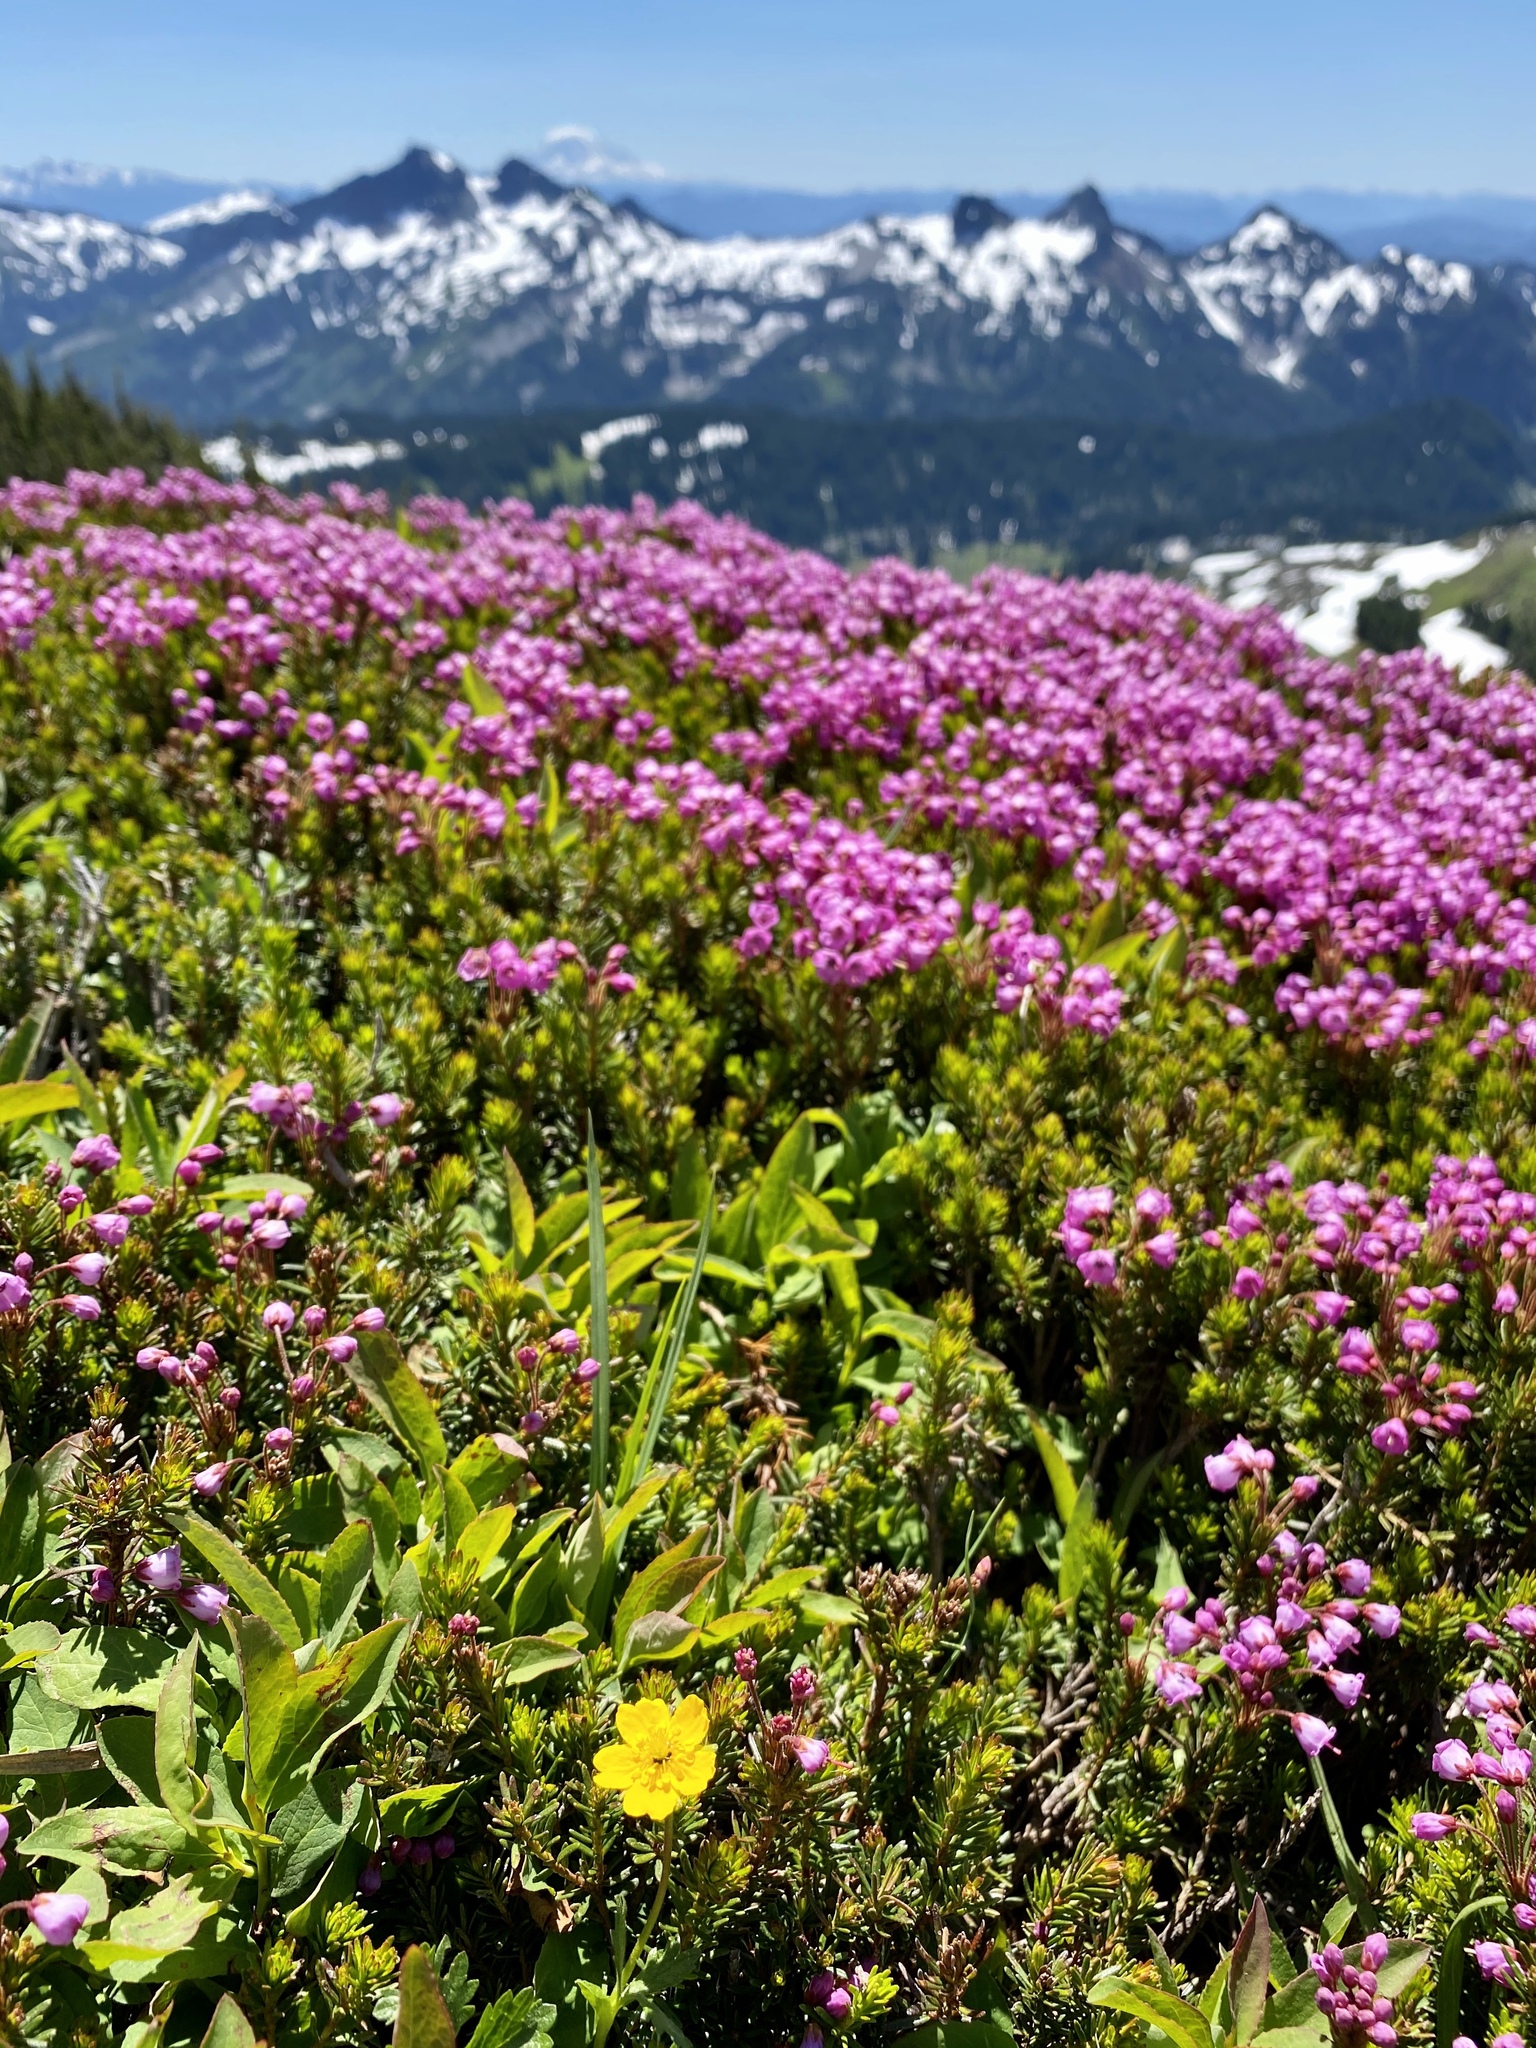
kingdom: Plantae
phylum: Tracheophyta
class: Magnoliopsida
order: Ericales
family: Ericaceae
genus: Phyllodoce
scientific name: Phyllodoce empetriformis
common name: Pink mountain heather
